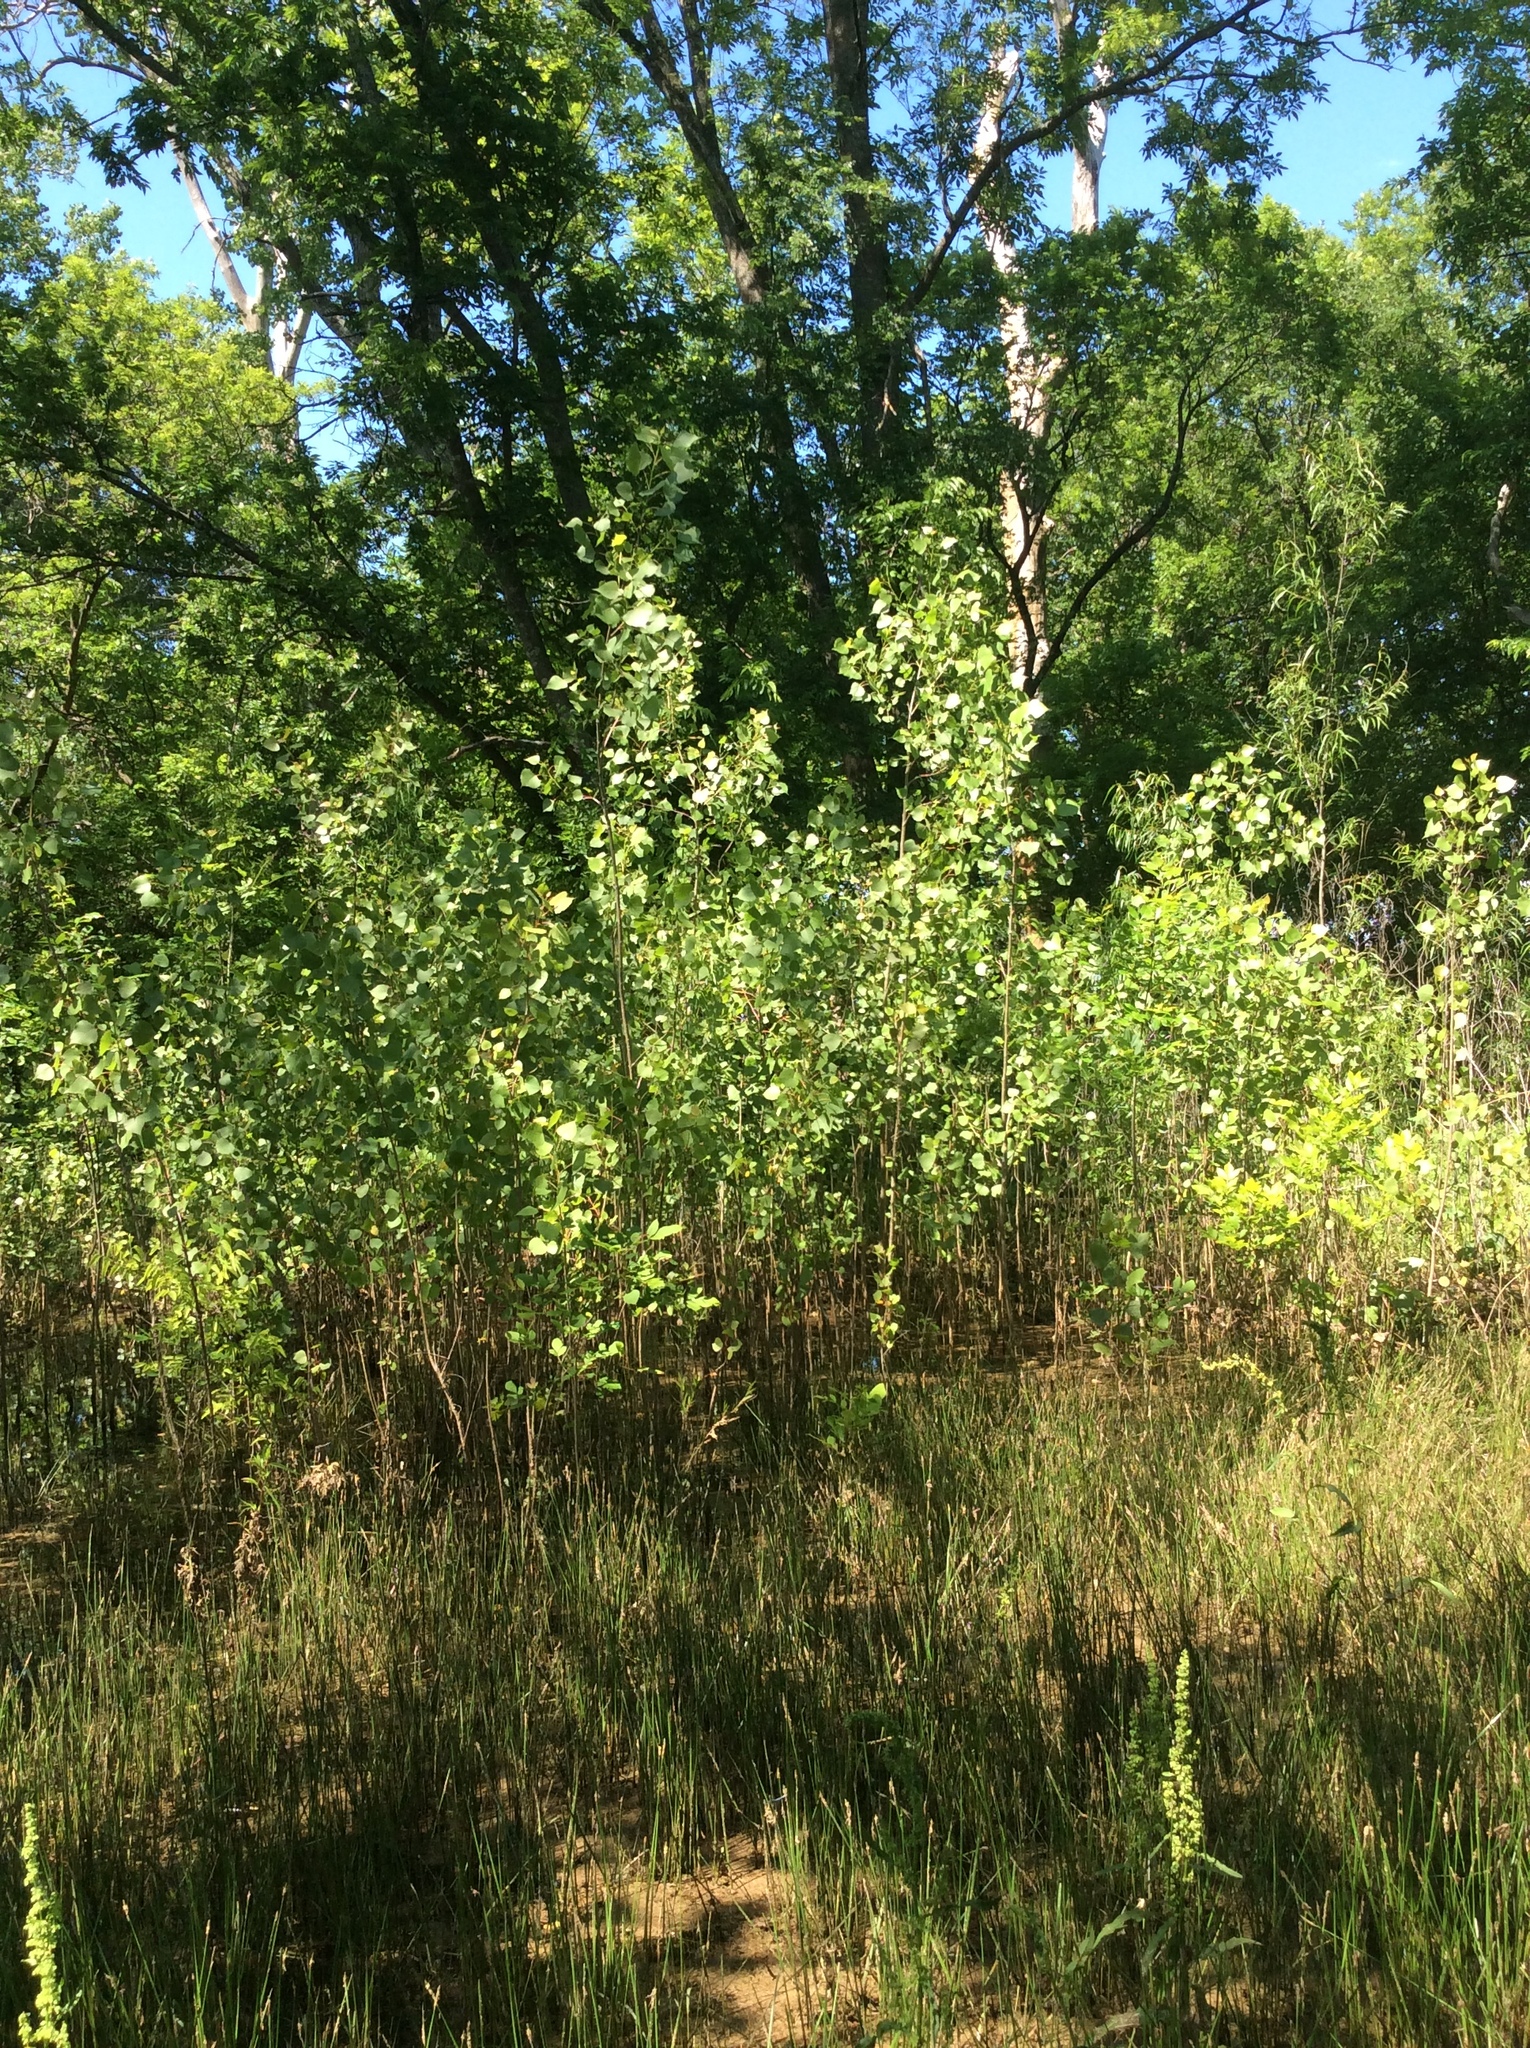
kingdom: Plantae
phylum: Tracheophyta
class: Magnoliopsida
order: Malpighiales
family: Salicaceae
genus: Populus
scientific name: Populus deltoides
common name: Eastern cottonwood
